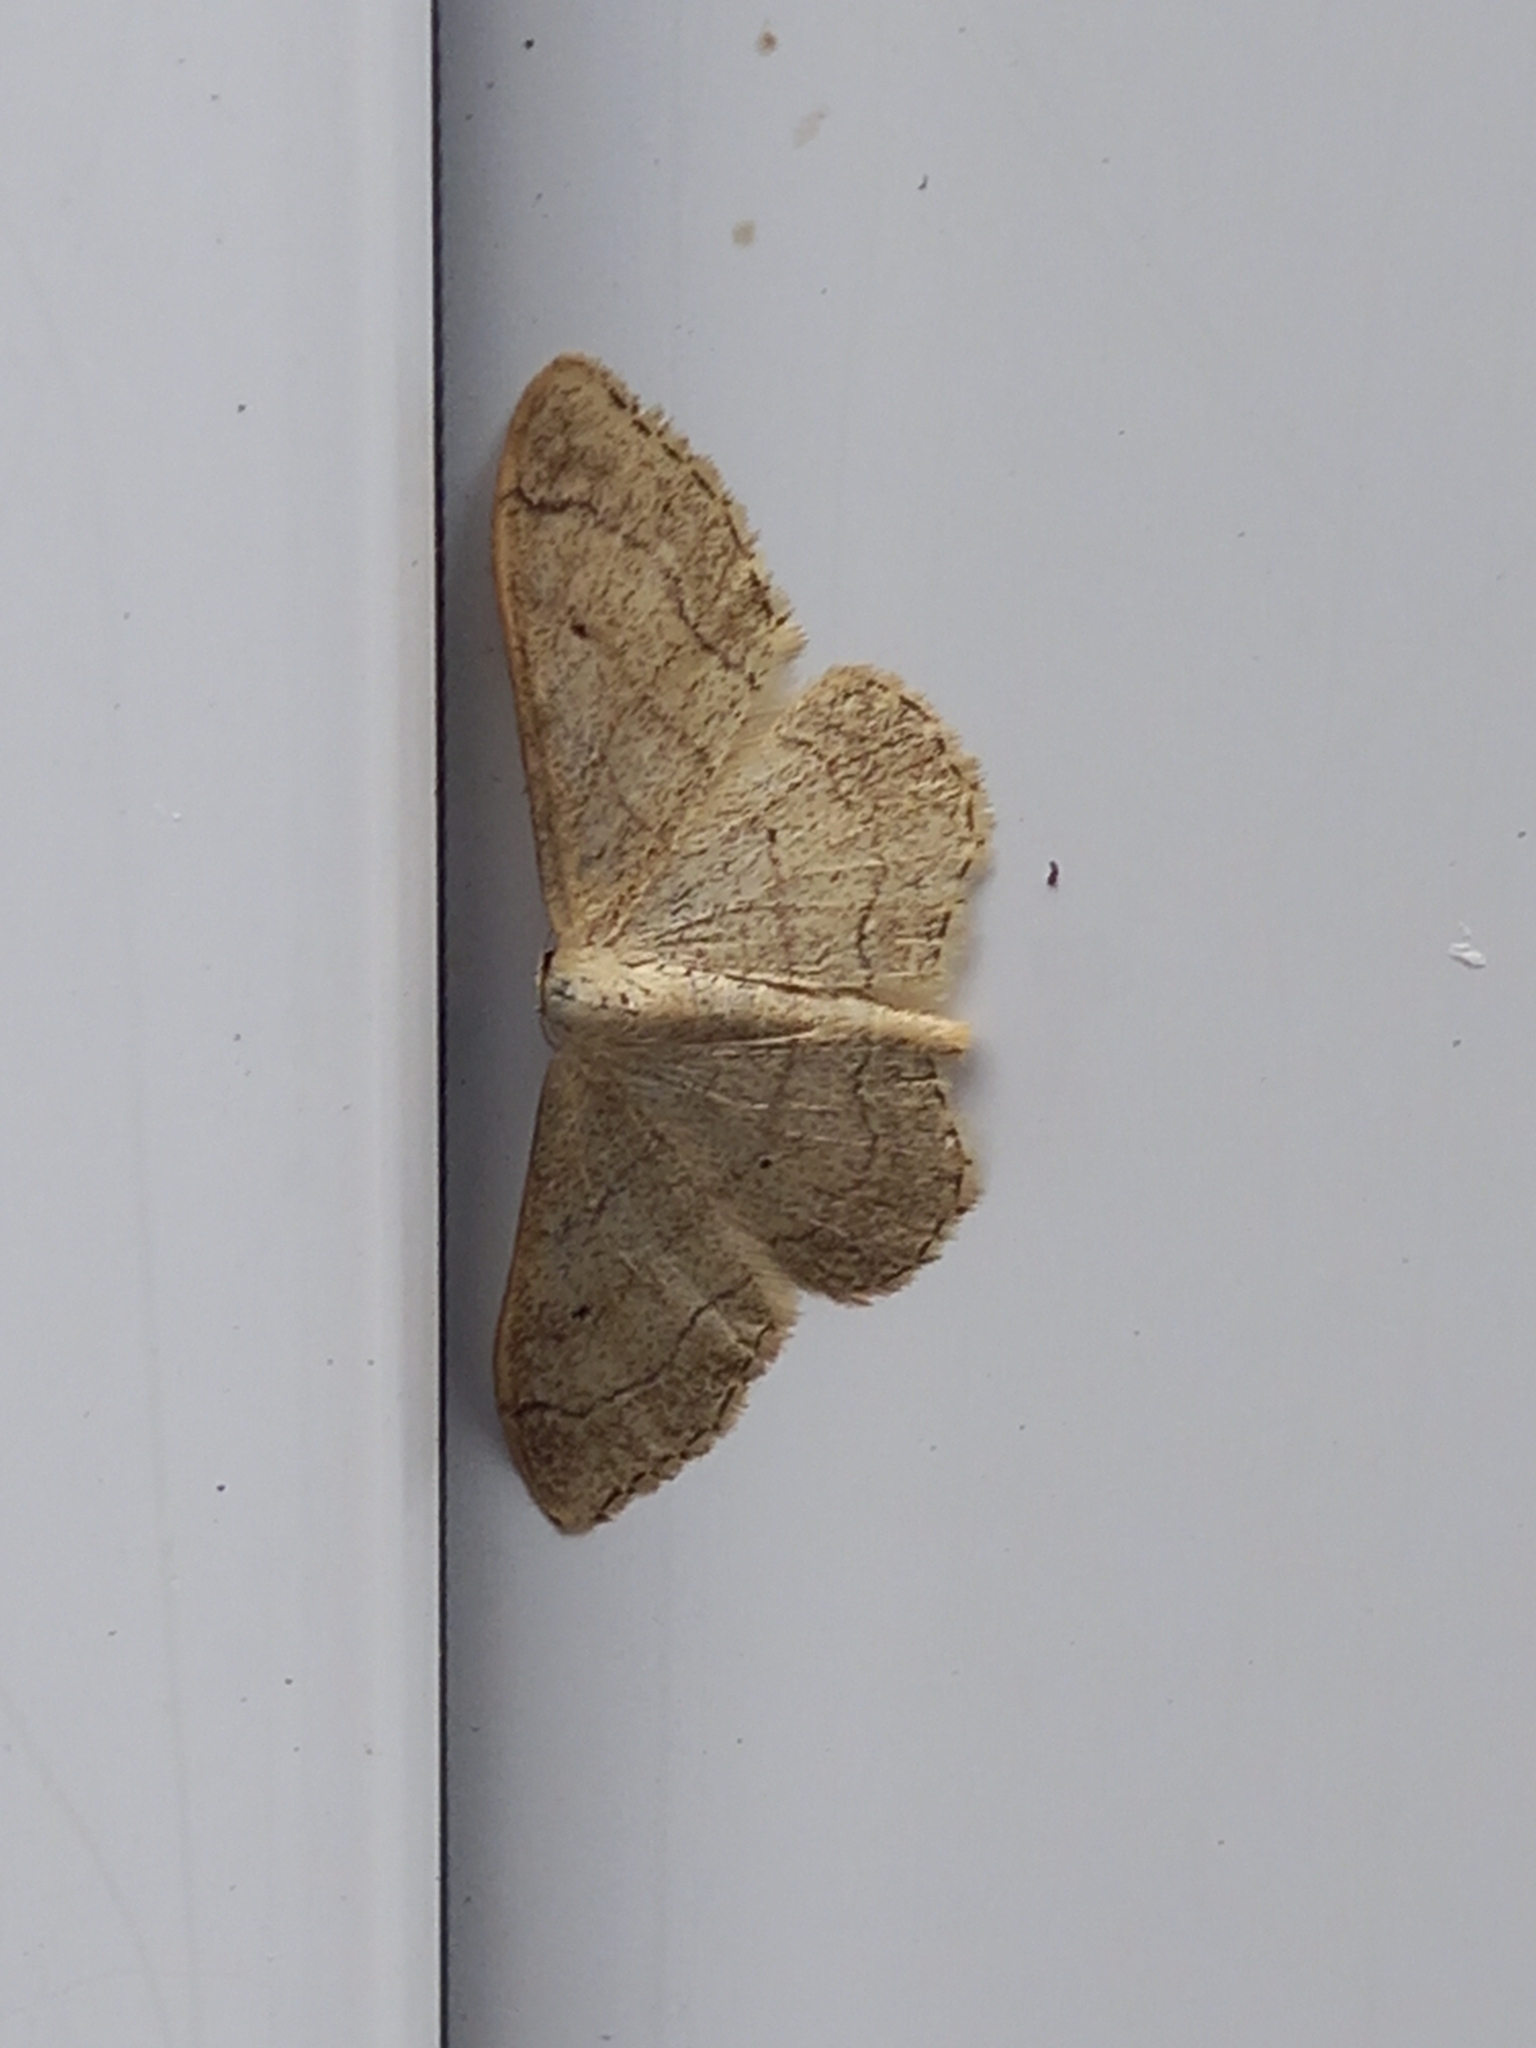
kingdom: Animalia
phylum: Arthropoda
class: Insecta
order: Lepidoptera
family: Geometridae
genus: Idaea
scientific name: Idaea aversata
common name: Riband wave
